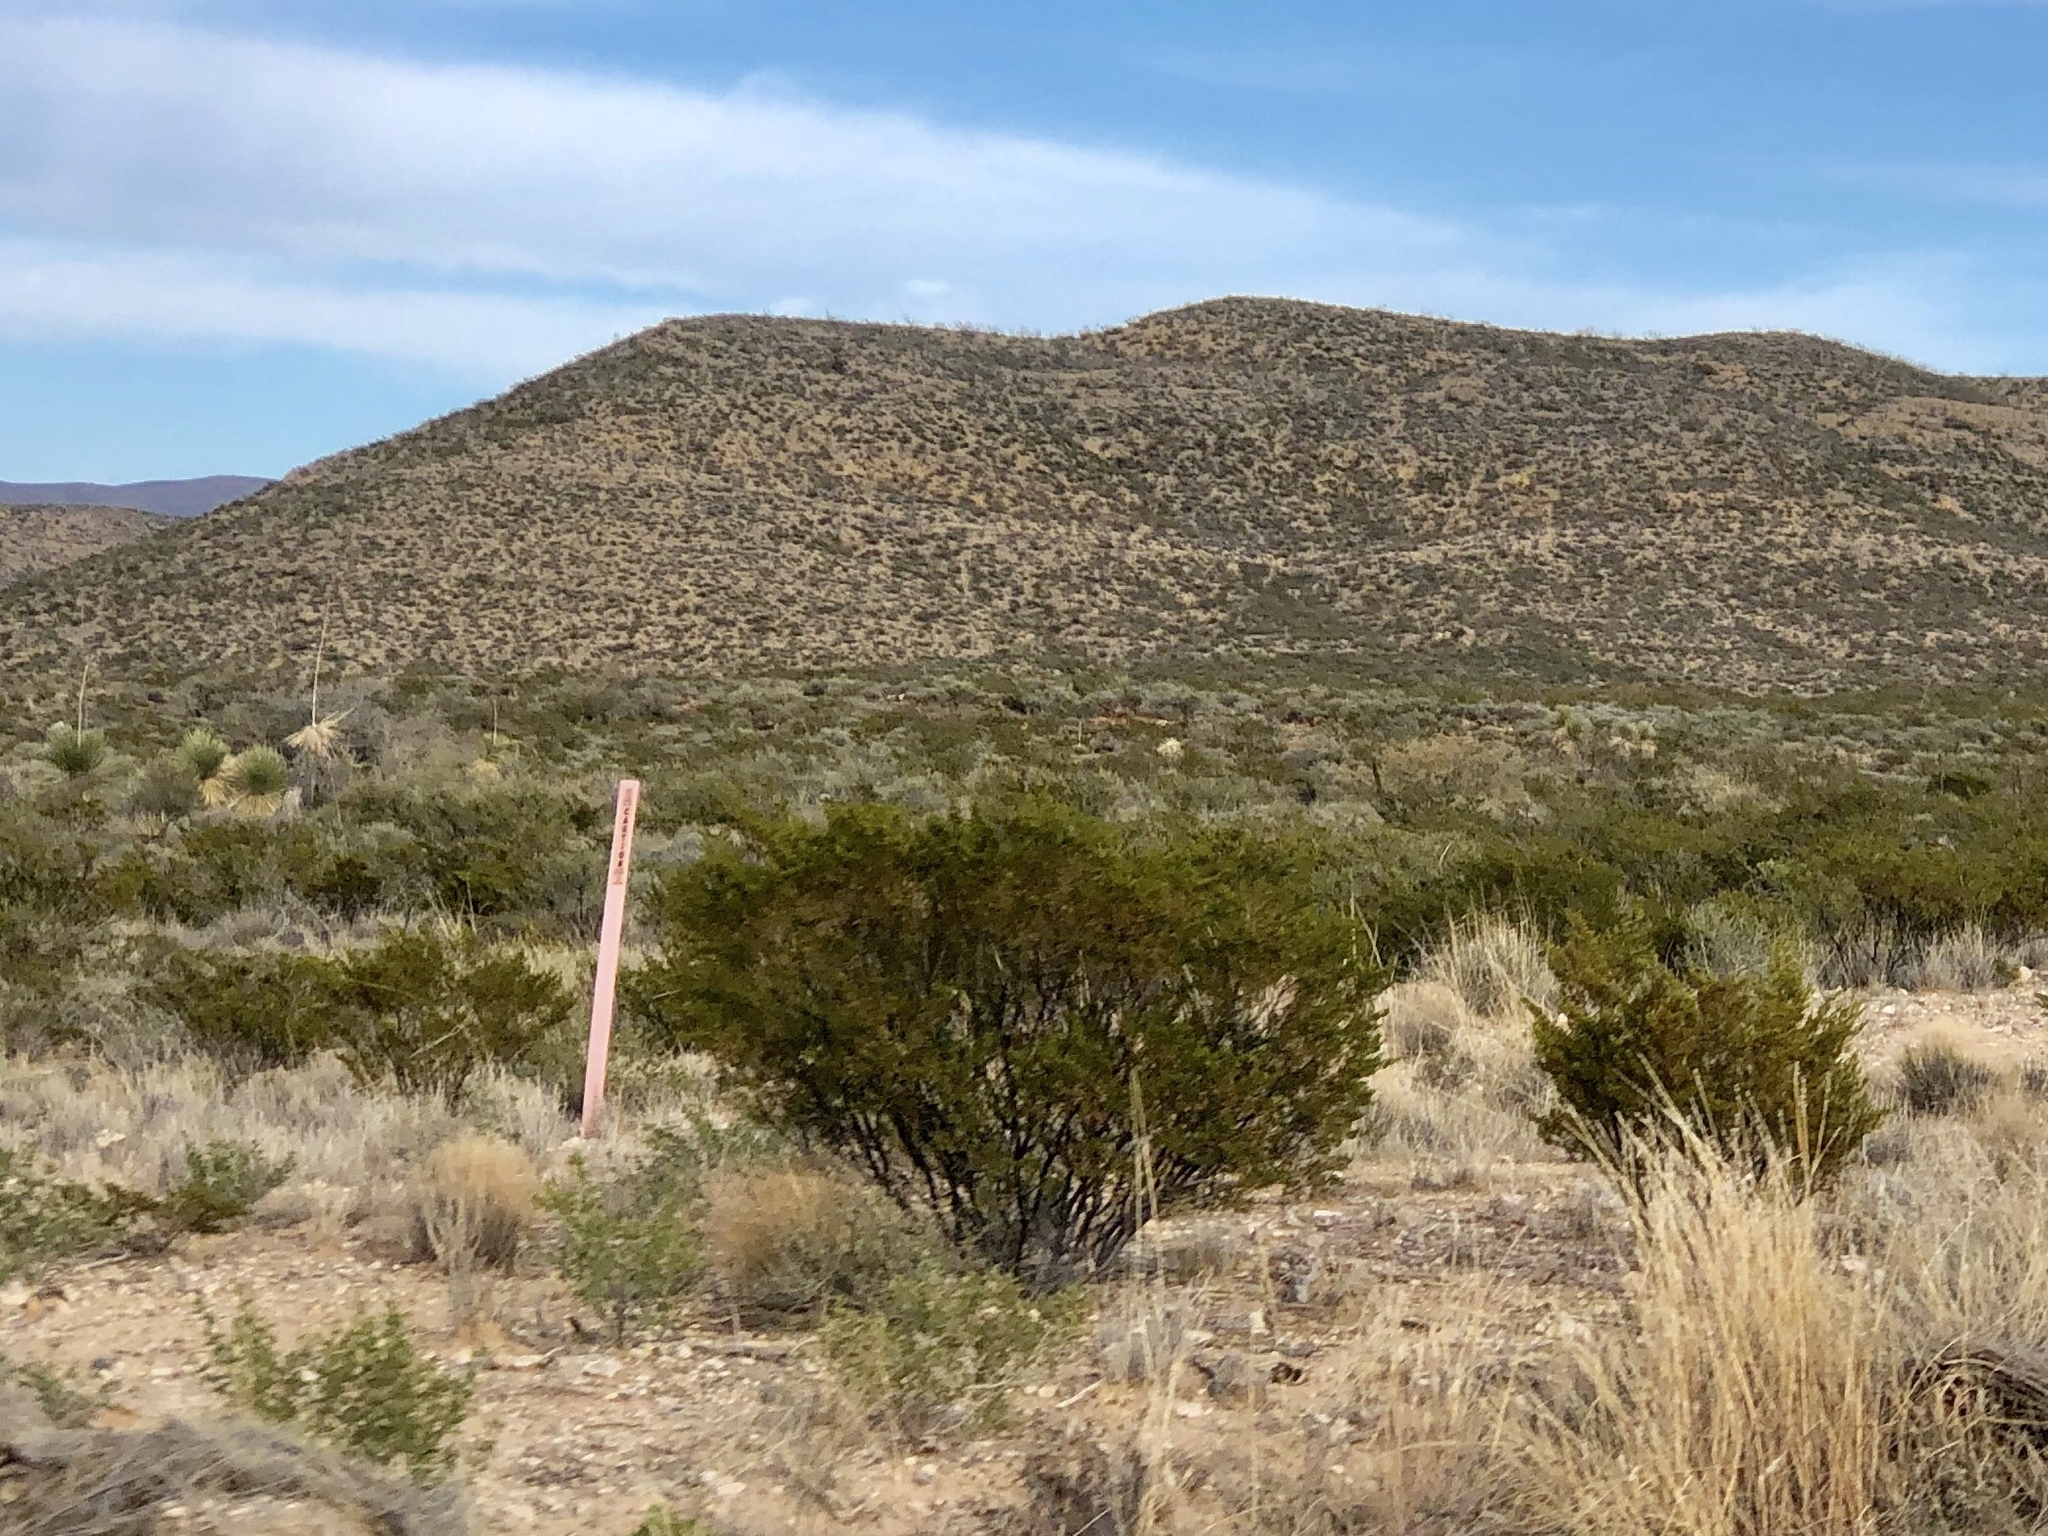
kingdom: Plantae
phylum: Tracheophyta
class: Magnoliopsida
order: Zygophyllales
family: Zygophyllaceae
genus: Larrea
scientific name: Larrea tridentata
